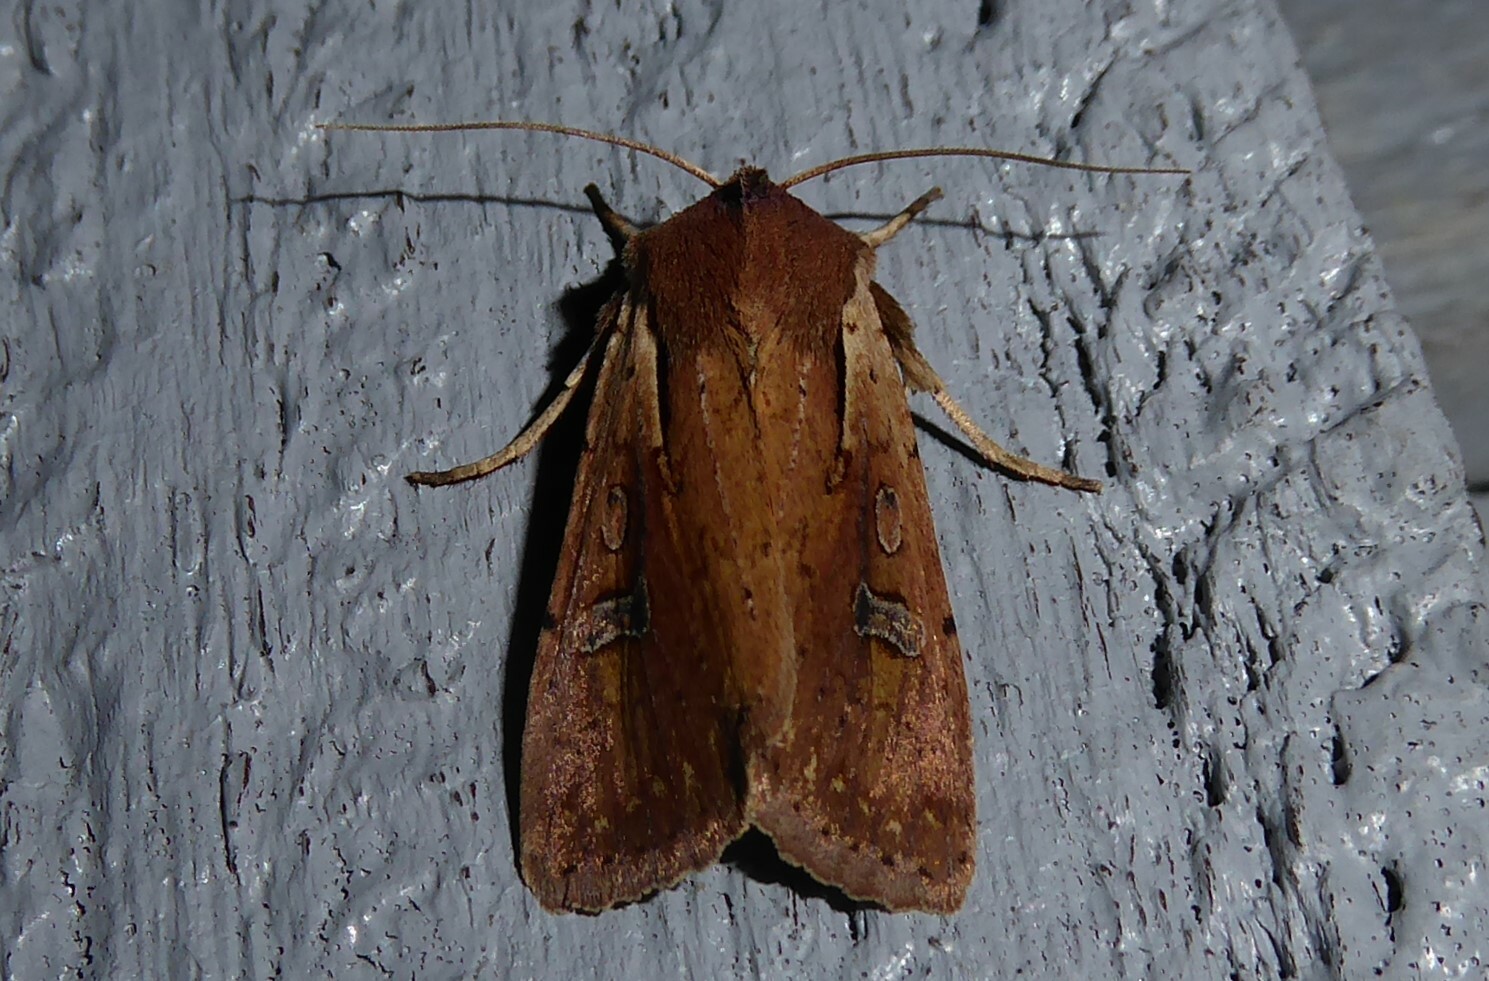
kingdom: Animalia
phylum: Arthropoda
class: Insecta
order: Lepidoptera
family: Noctuidae
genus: Ichneutica
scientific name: Ichneutica atristriga
